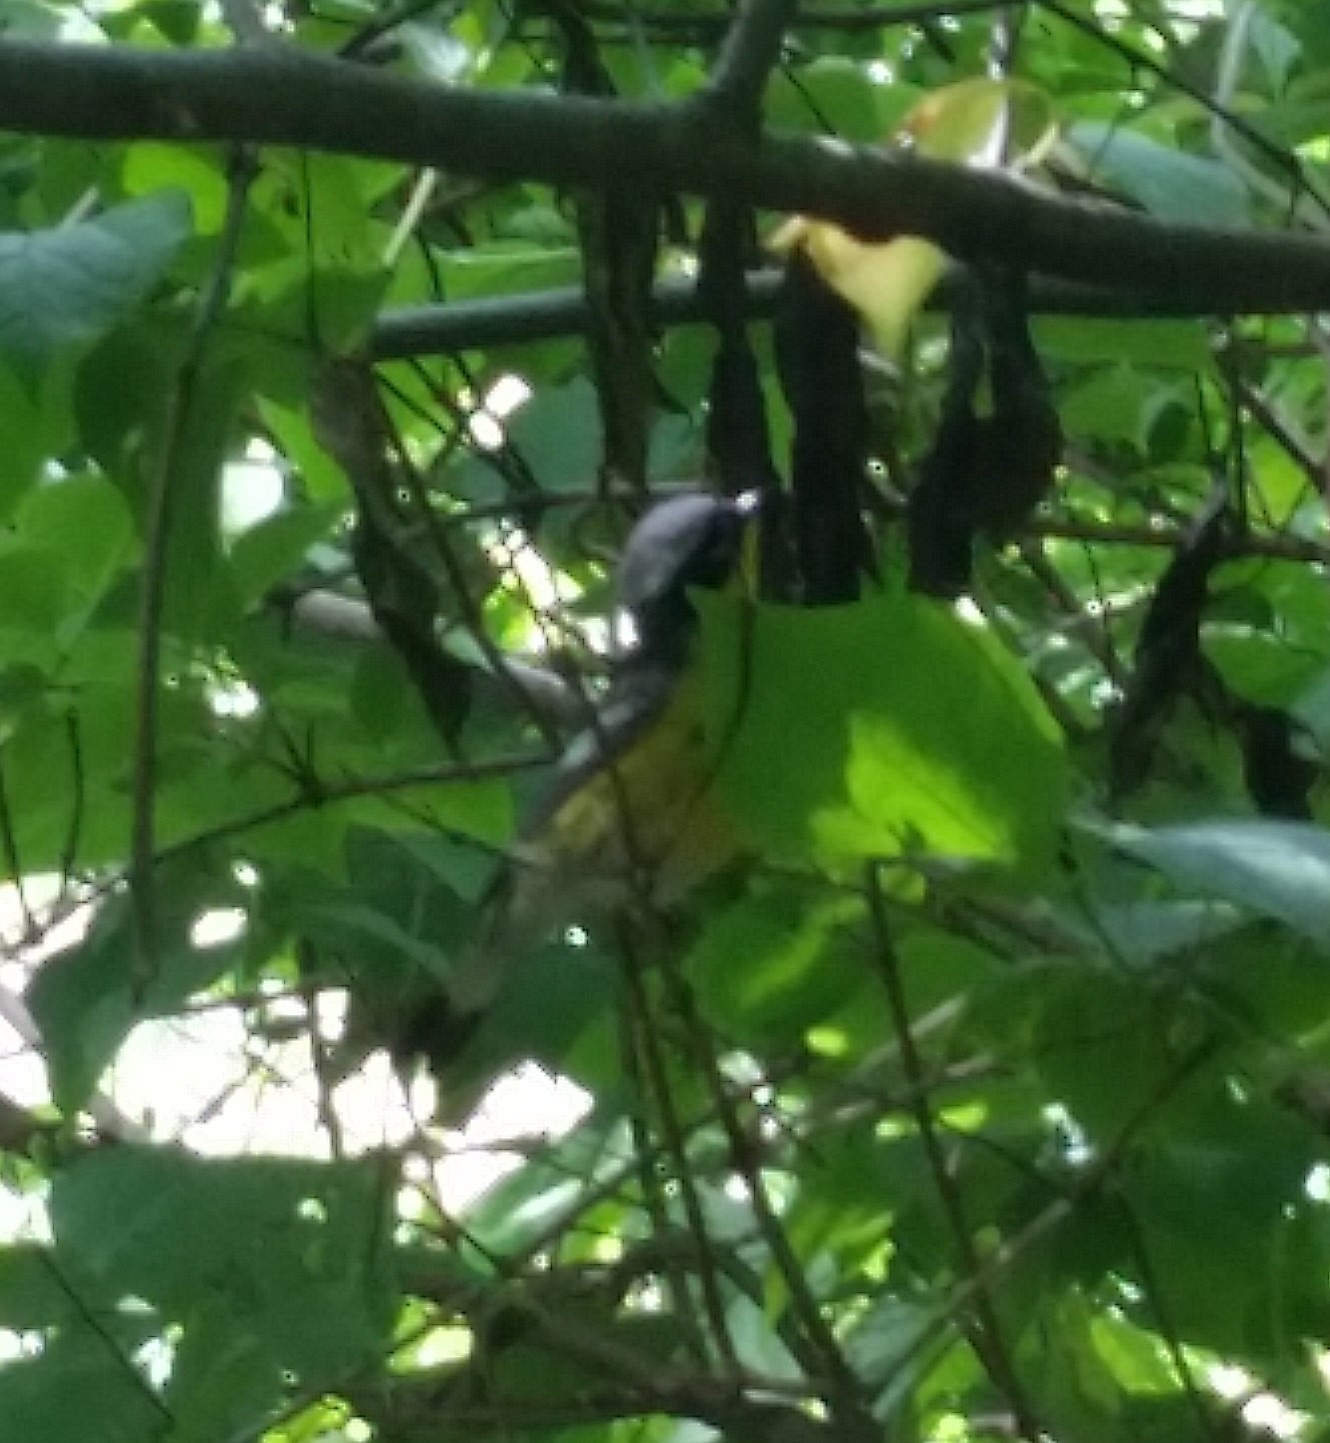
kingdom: Animalia
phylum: Chordata
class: Aves
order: Passeriformes
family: Parulidae
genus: Setophaga
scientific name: Setophaga magnolia
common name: Magnolia warbler
